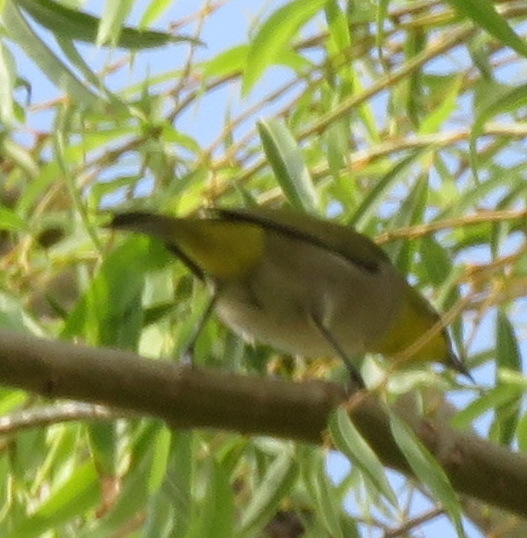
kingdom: Animalia
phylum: Chordata
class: Aves
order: Passeriformes
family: Zosteropidae
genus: Zosterops
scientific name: Zosterops virens
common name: Cape white-eye
